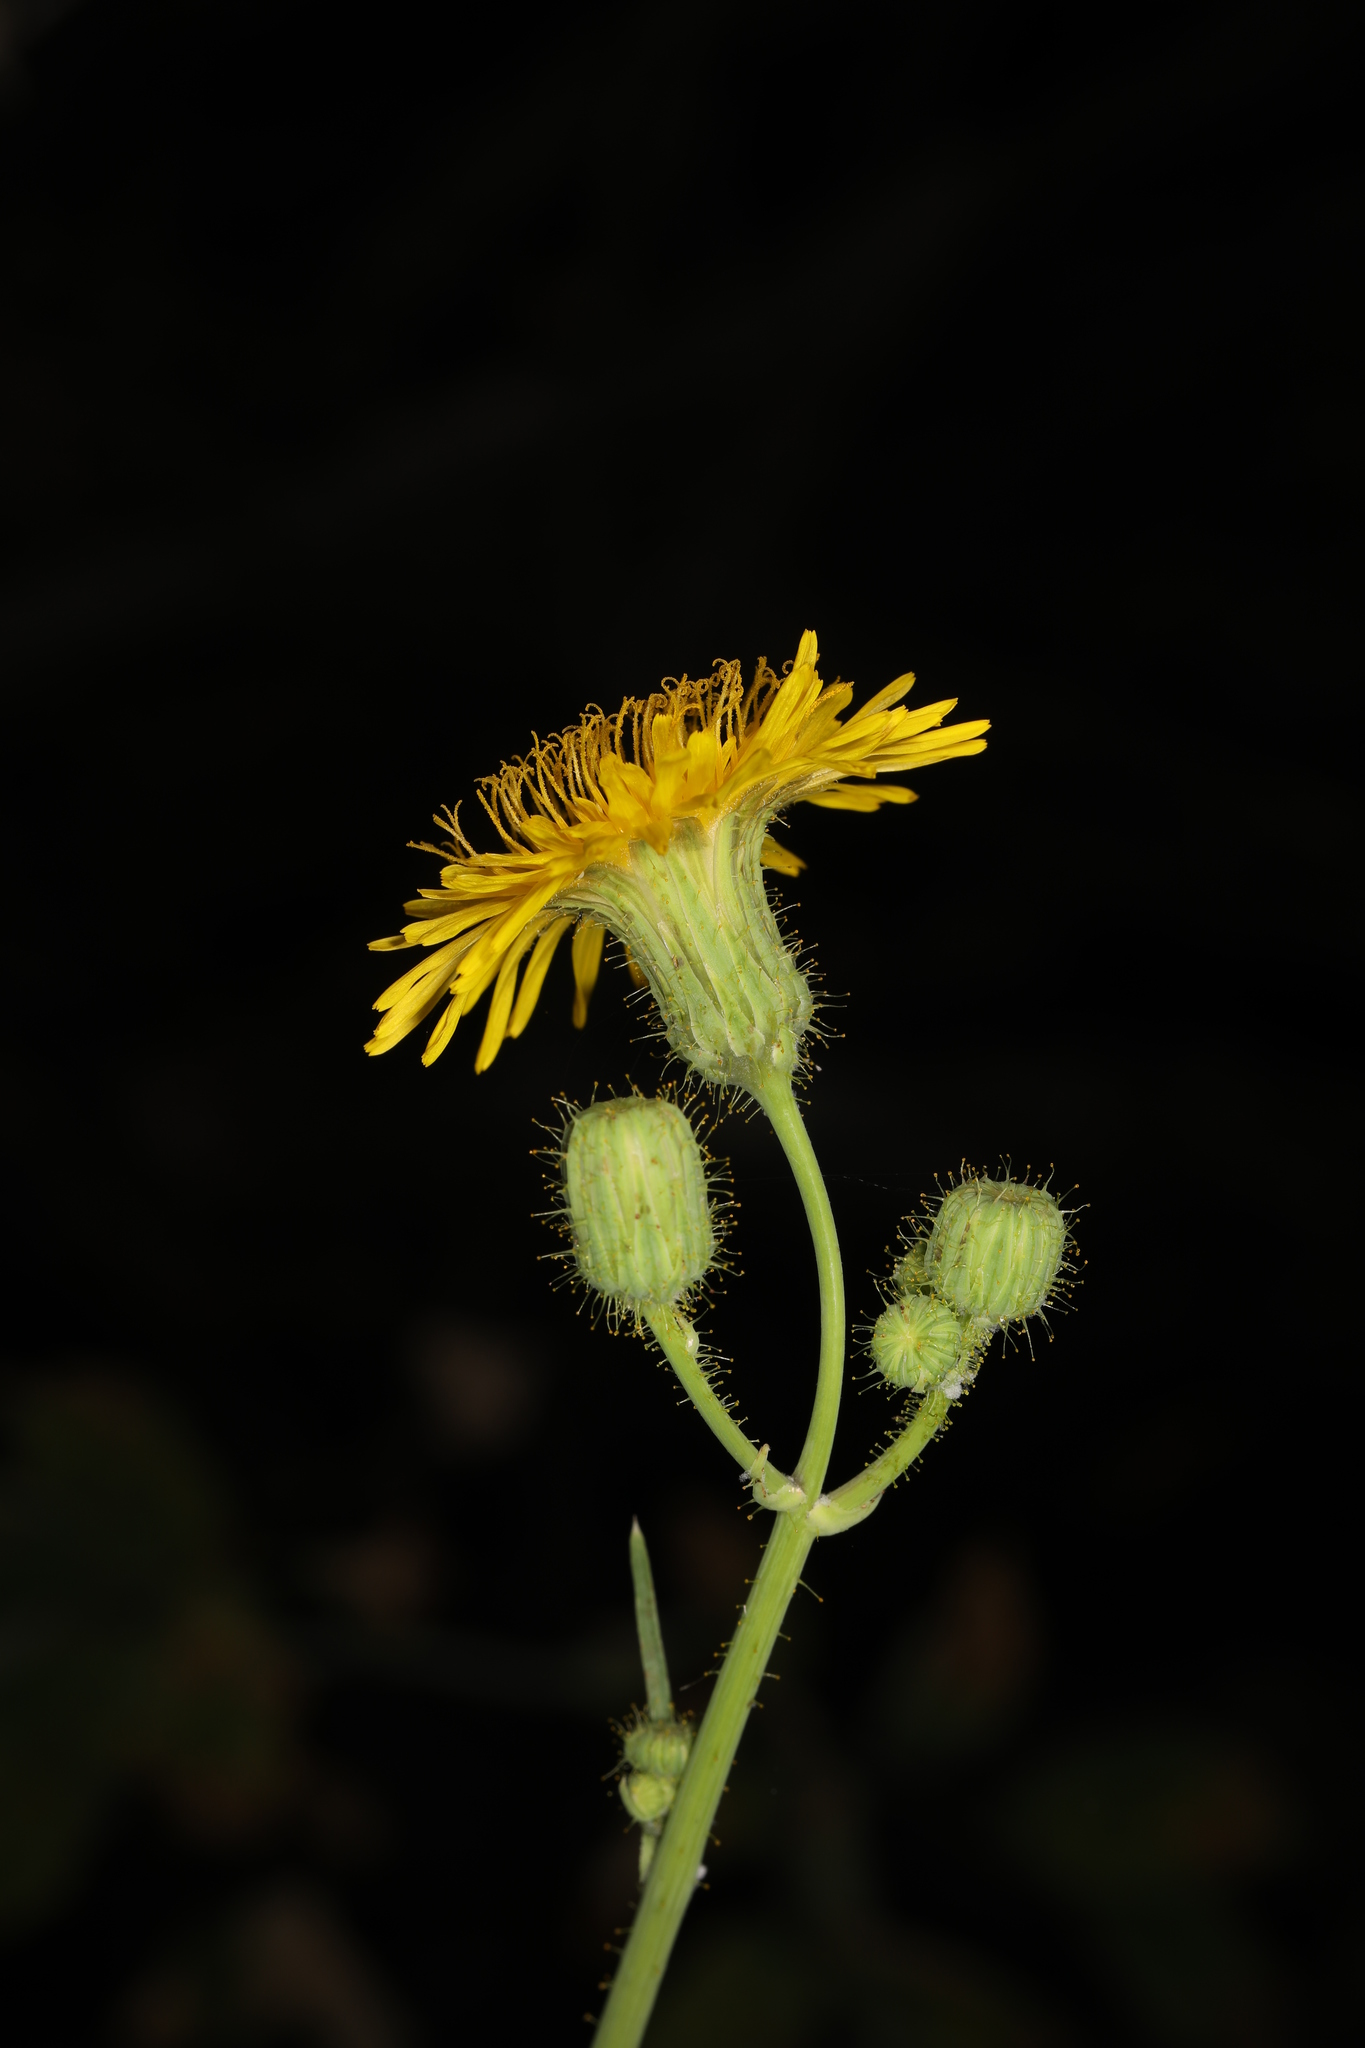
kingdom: Plantae
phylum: Tracheophyta
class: Magnoliopsida
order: Asterales
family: Asteraceae
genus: Sonchus
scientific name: Sonchus arvensis
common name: Perennial sow-thistle
